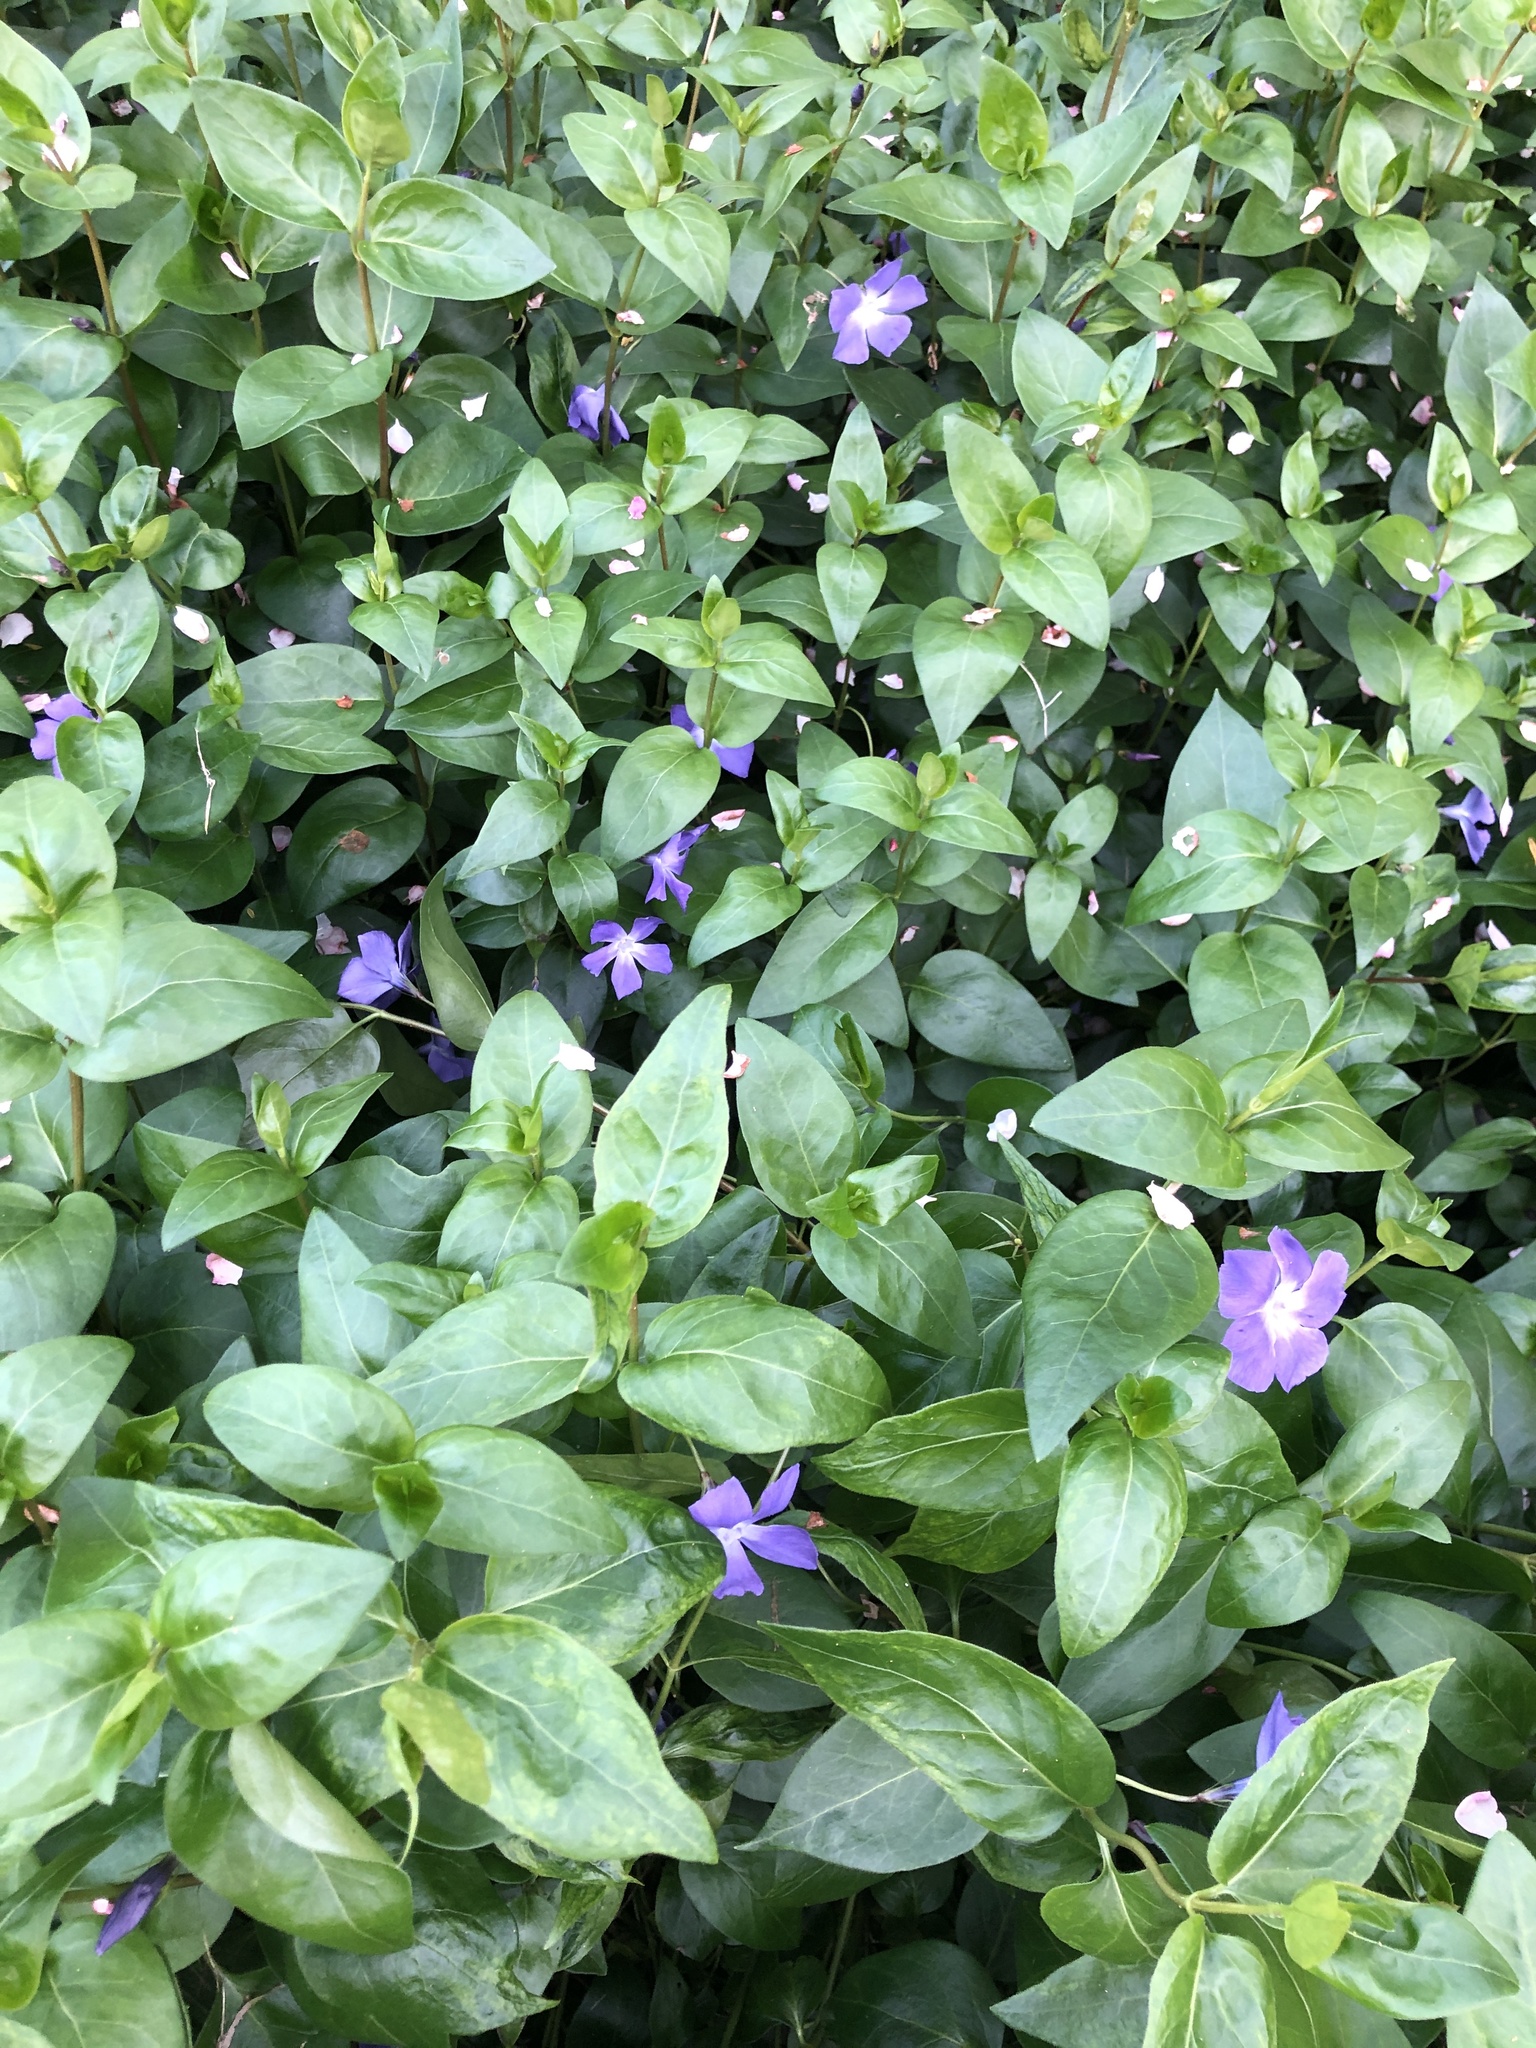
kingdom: Plantae
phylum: Tracheophyta
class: Magnoliopsida
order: Gentianales
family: Apocynaceae
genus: Vinca
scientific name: Vinca major
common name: Greater periwinkle
